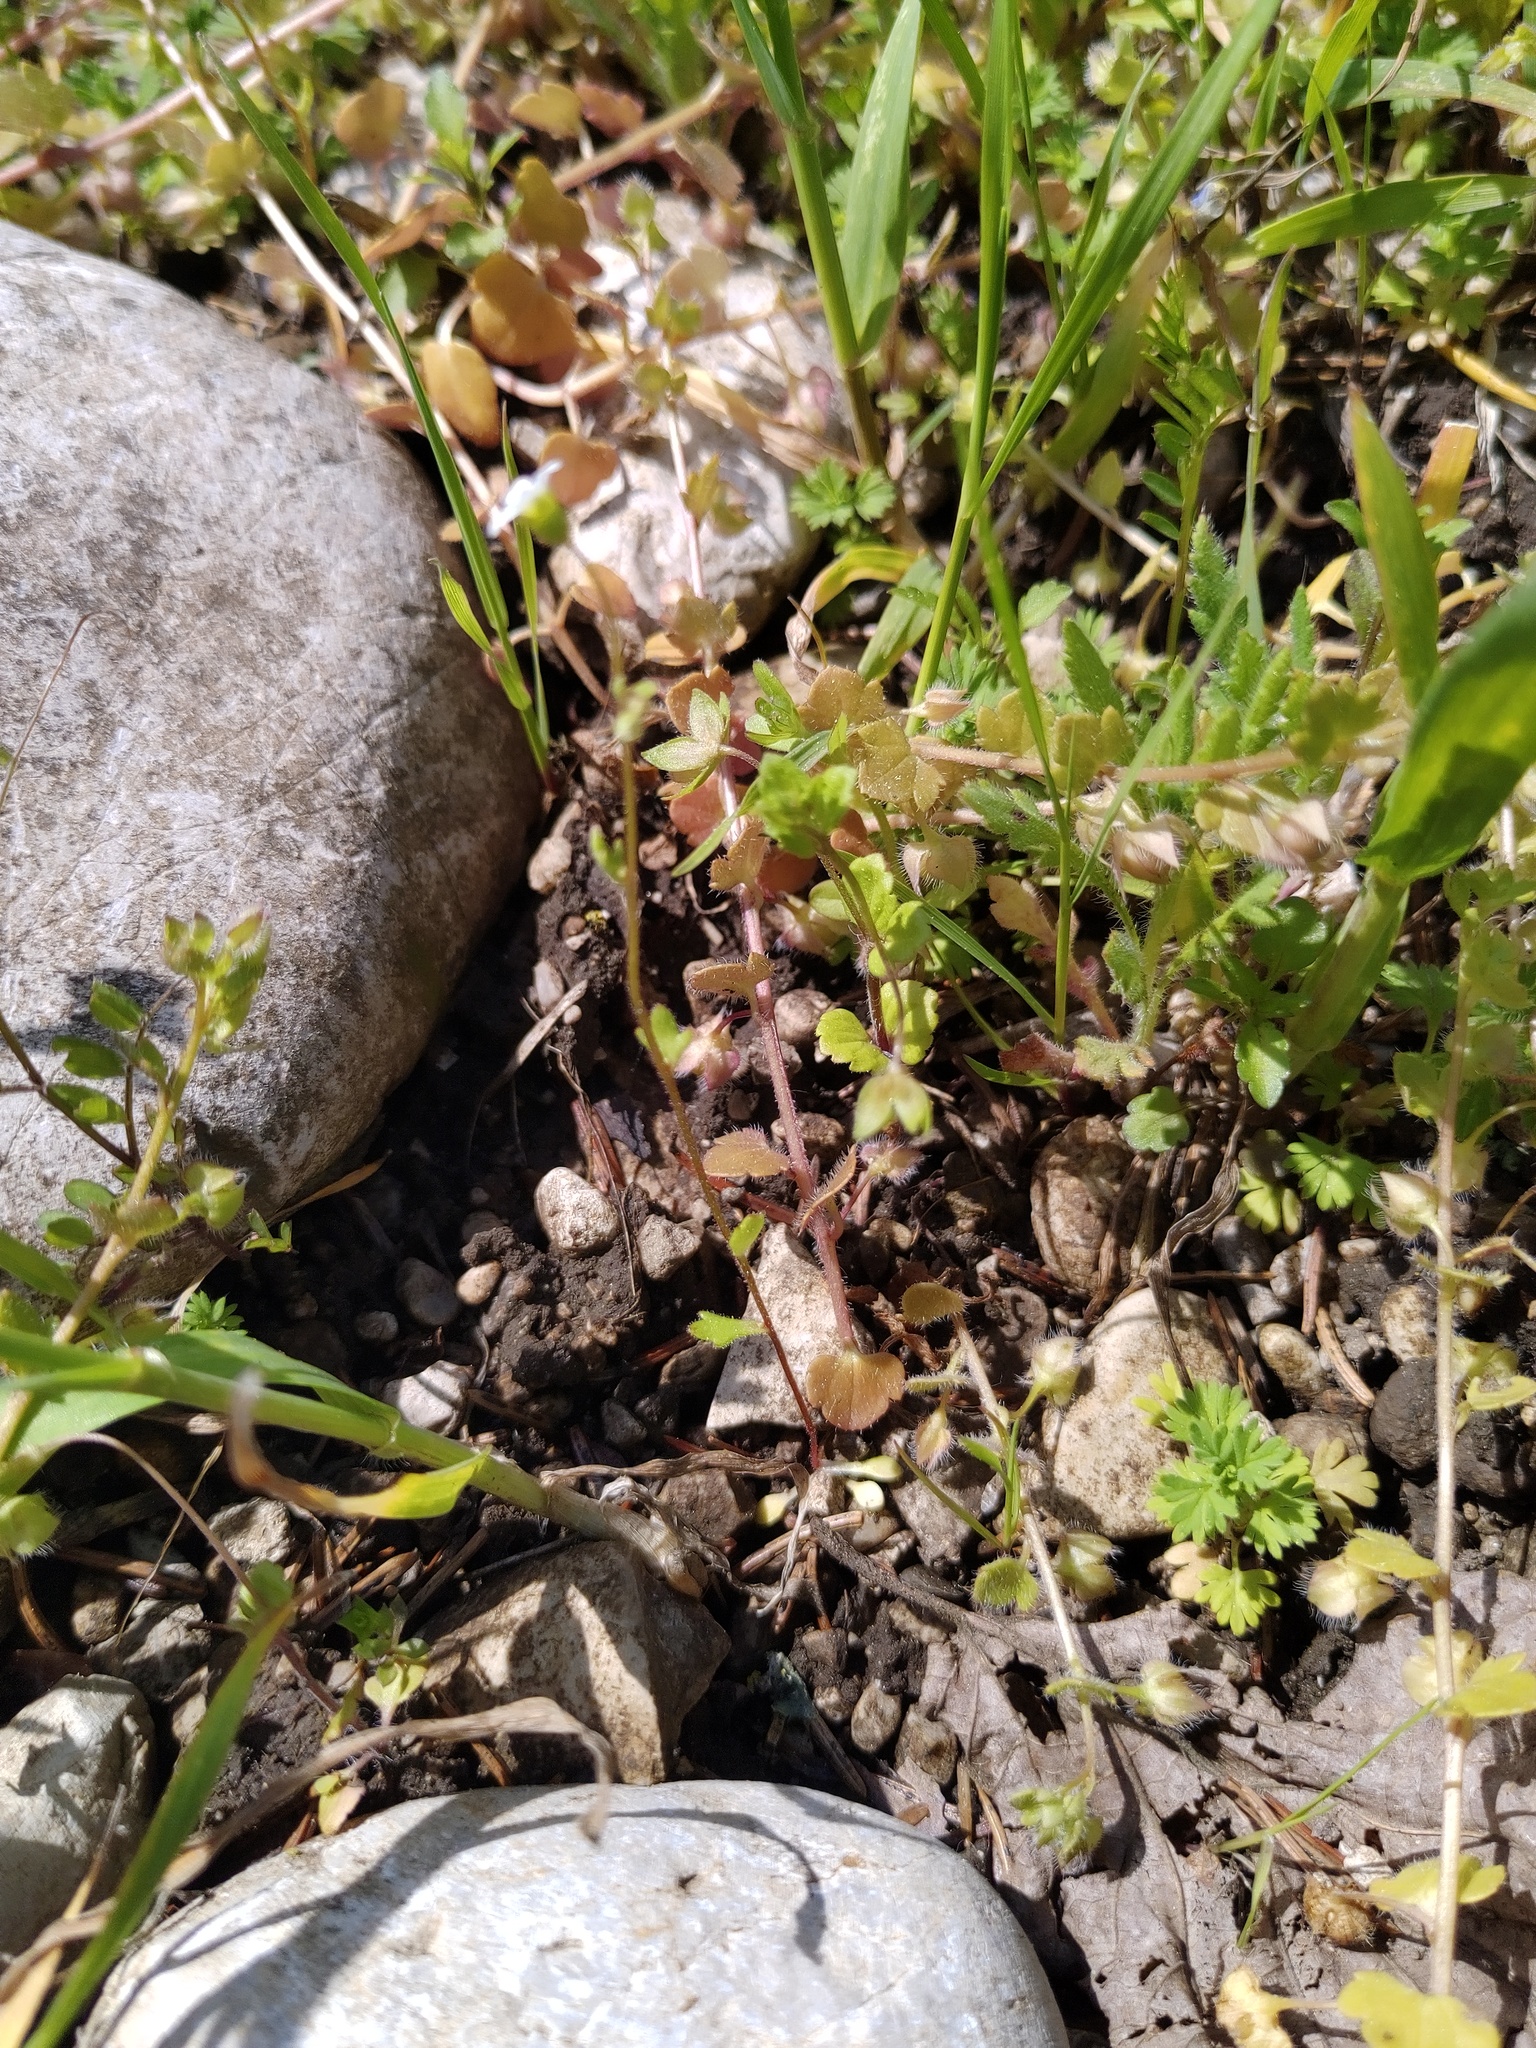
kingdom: Plantae
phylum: Tracheophyta
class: Magnoliopsida
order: Saxifragales
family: Saxifragaceae
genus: Saxifraga
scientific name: Saxifraga tridactylites
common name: Rue-leaved saxifrage
